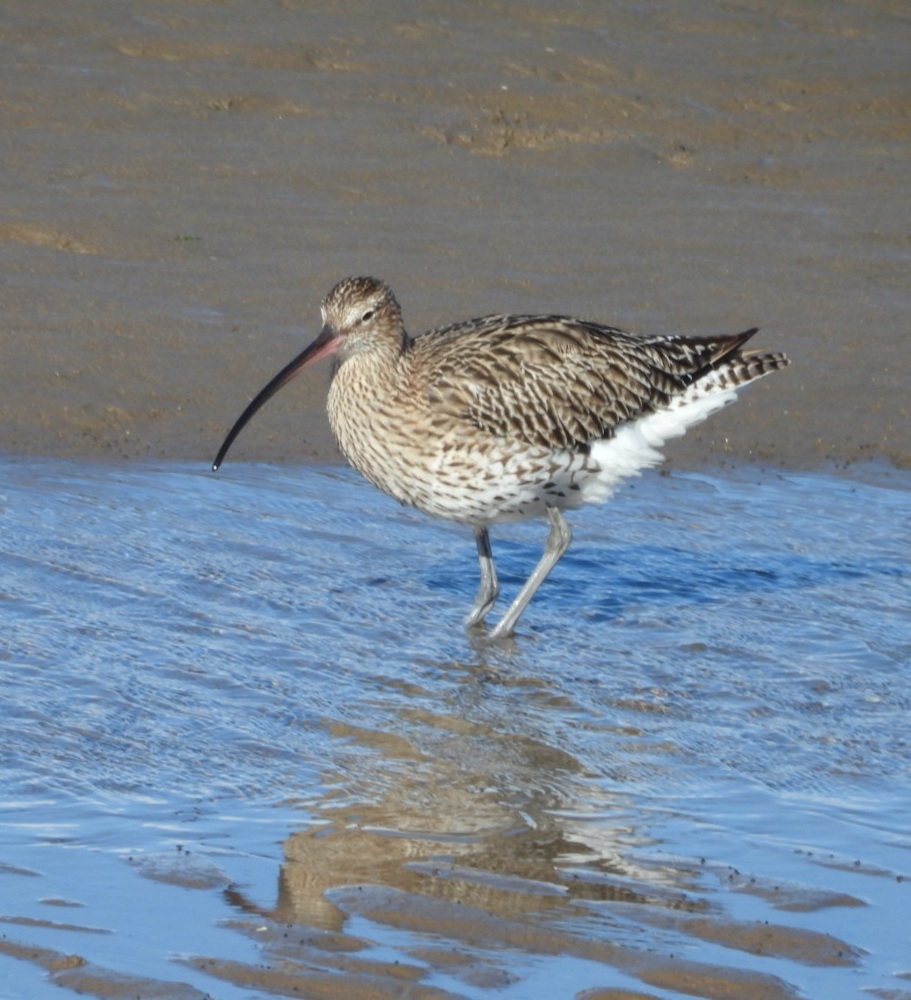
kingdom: Animalia
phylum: Chordata
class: Aves
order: Charadriiformes
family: Scolopacidae
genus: Numenius
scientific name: Numenius arquata
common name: Eurasian curlew
